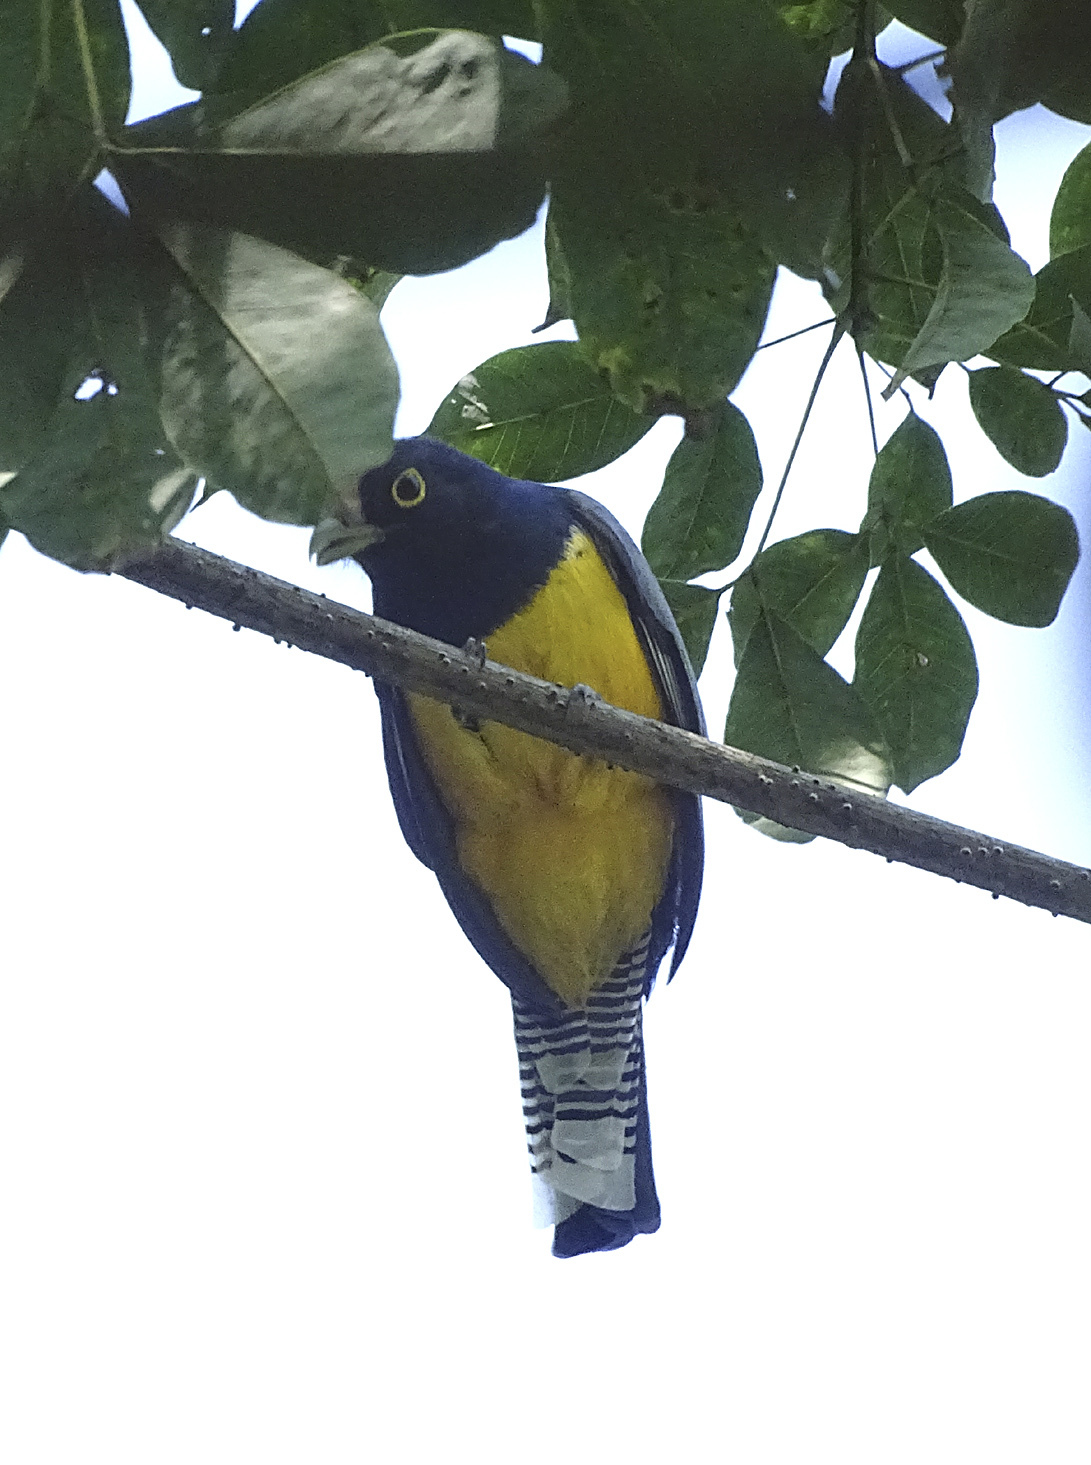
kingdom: Animalia
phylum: Chordata
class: Aves
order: Trogoniformes
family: Trogonidae
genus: Trogon
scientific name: Trogon caligatus
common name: Gartered trogon
